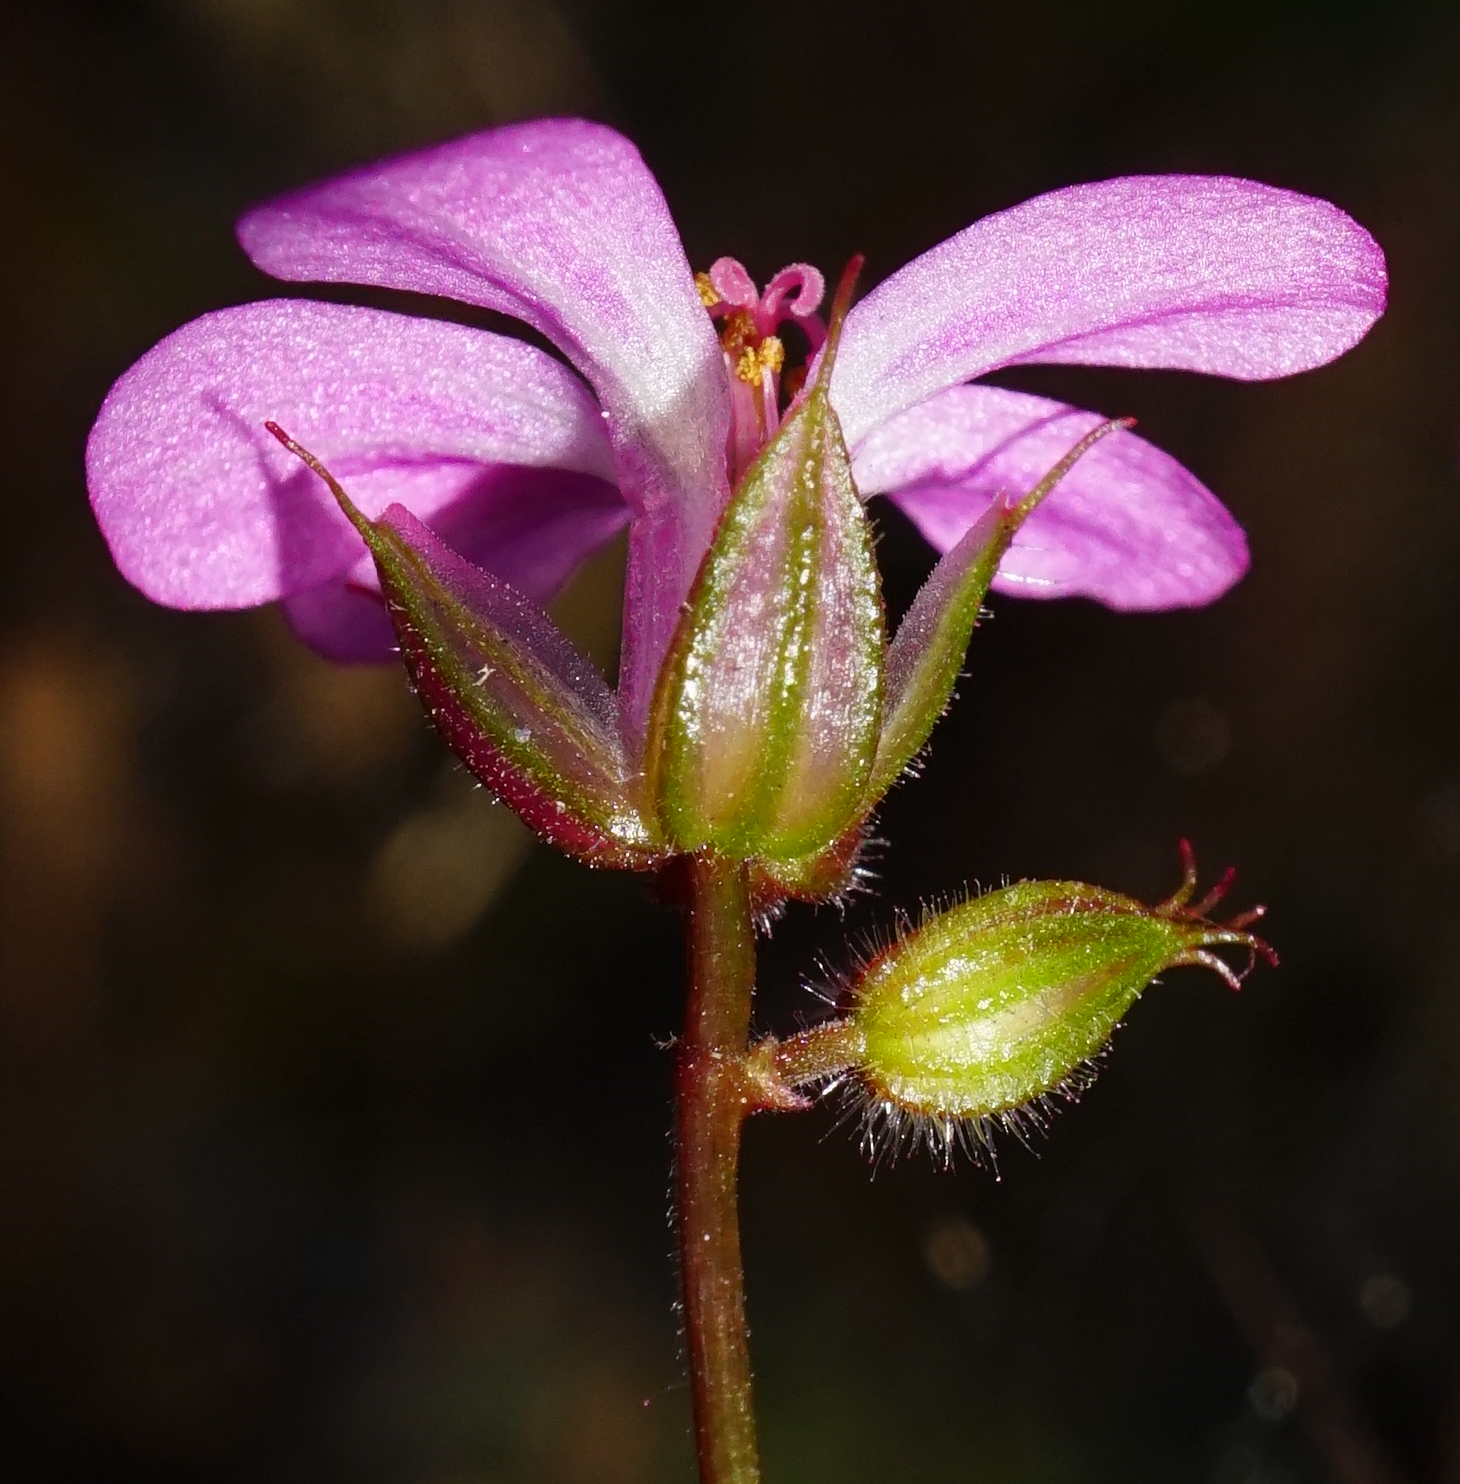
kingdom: Plantae
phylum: Tracheophyta
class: Magnoliopsida
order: Geraniales
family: Geraniaceae
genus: Geranium
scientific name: Geranium robertianum
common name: Herb-robert
